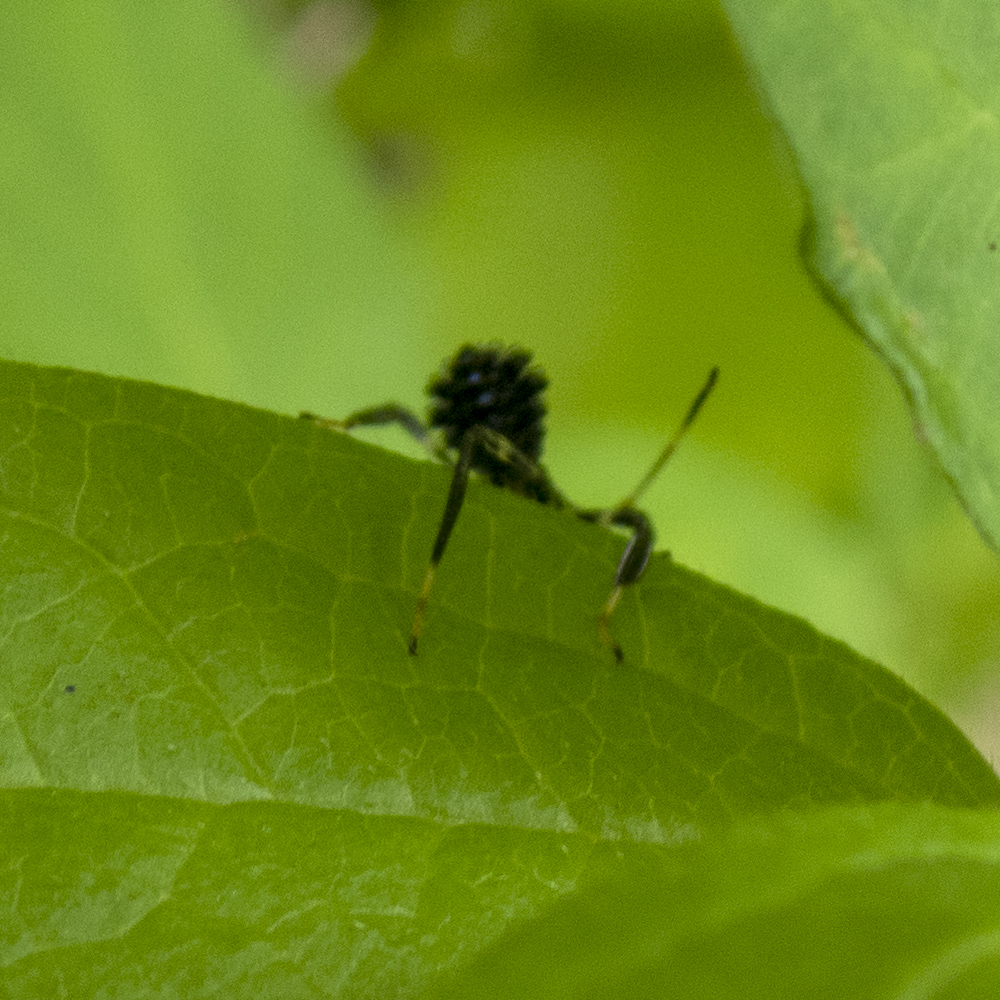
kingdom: Animalia
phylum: Arthropoda
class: Insecta
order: Hemiptera
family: Coreidae
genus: Acanthocephala
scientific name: Acanthocephala terminalis
